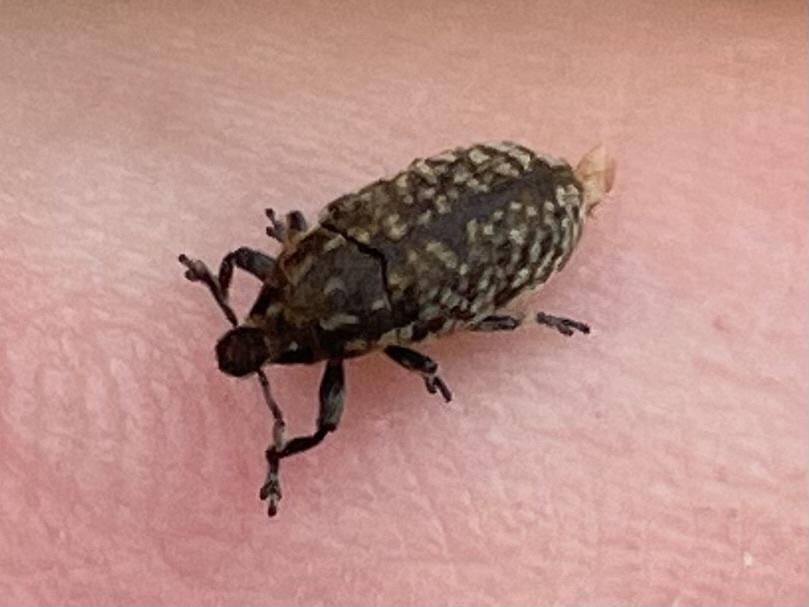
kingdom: Animalia
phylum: Arthropoda
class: Insecta
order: Coleoptera
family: Curculionidae
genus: Rhinocyllus
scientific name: Rhinocyllus conicus
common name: Weevil
